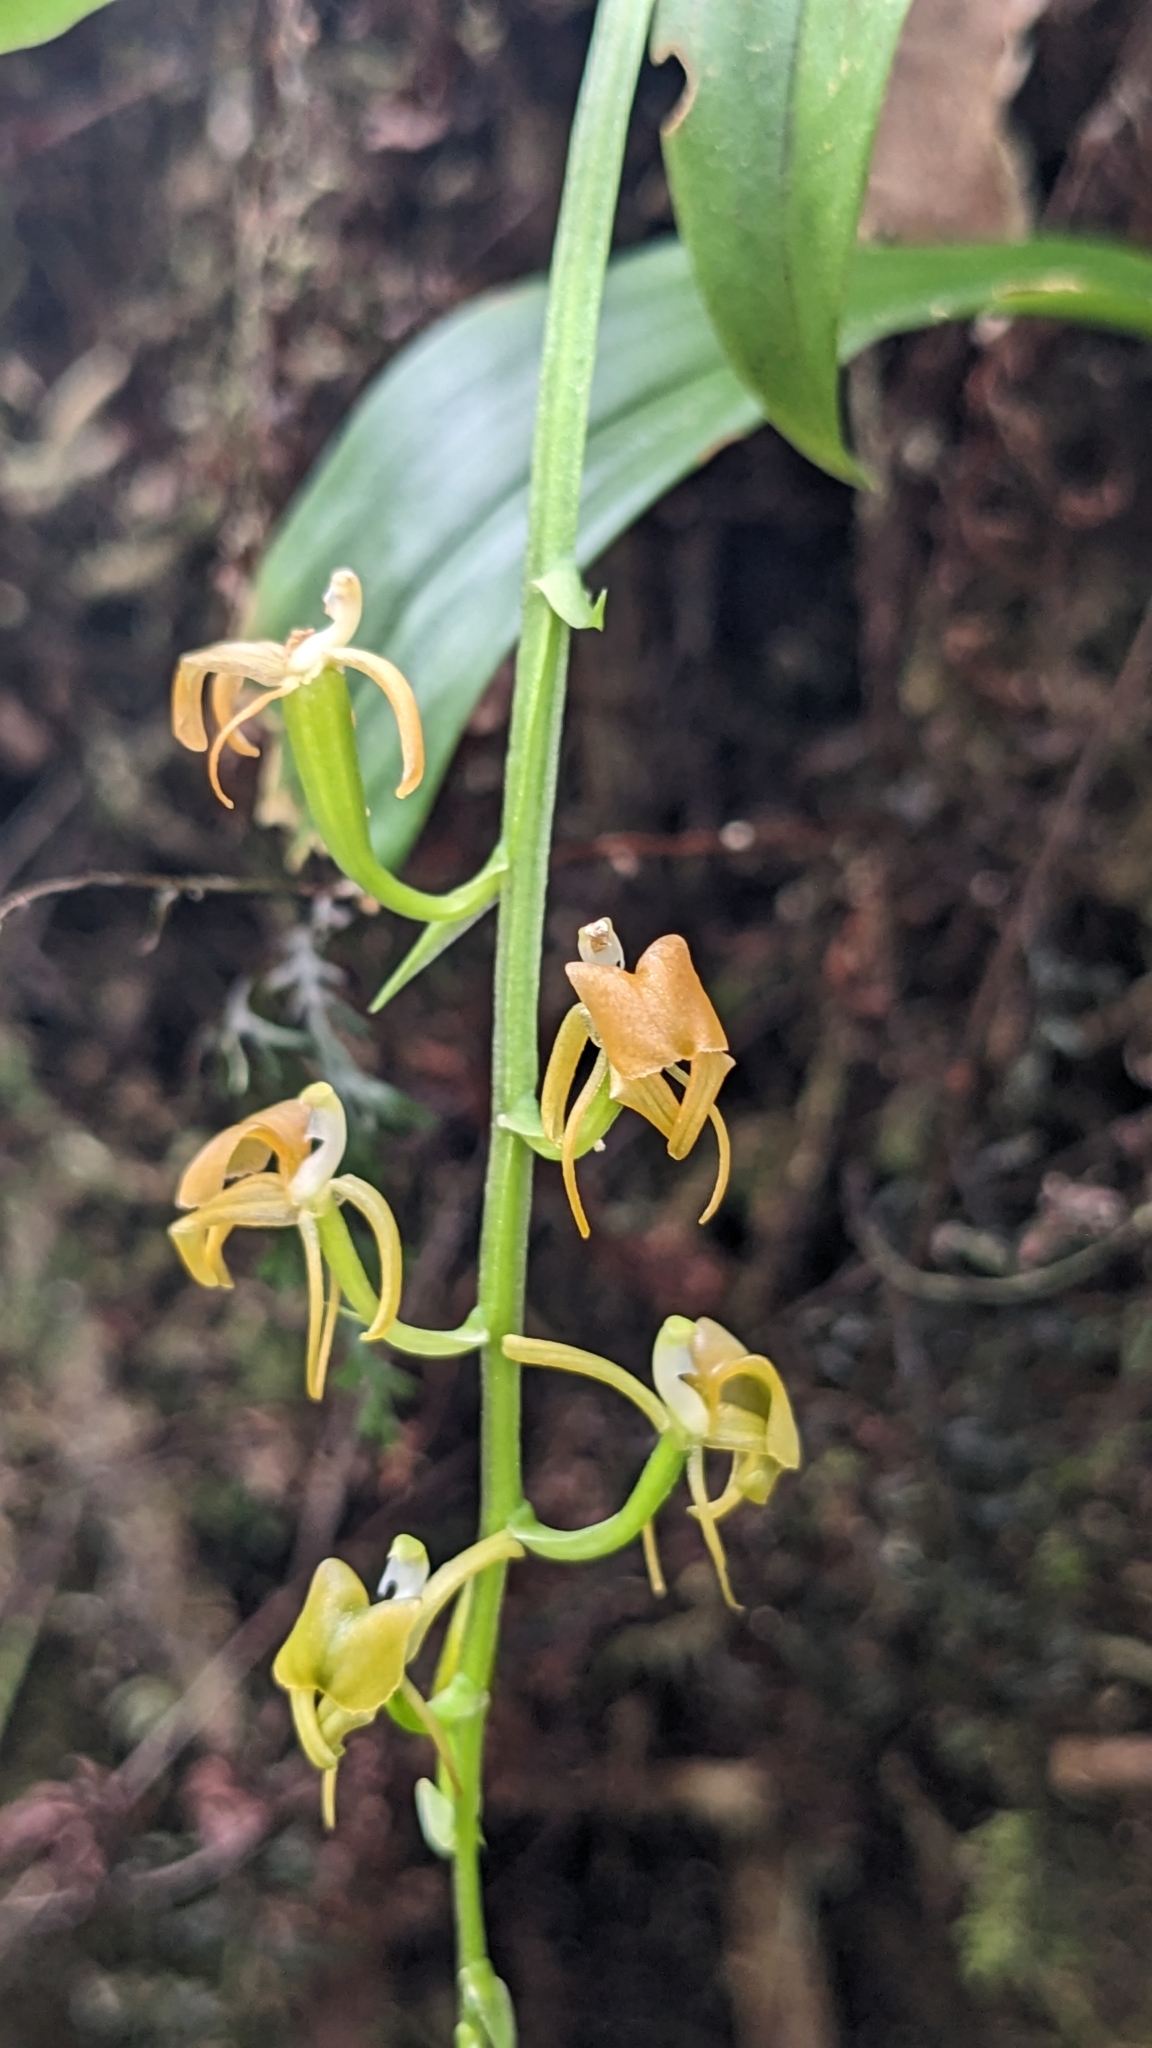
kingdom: Plantae
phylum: Tracheophyta
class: Liliopsida
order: Asparagales
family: Orchidaceae
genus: Liparis
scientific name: Liparis bootanensis
